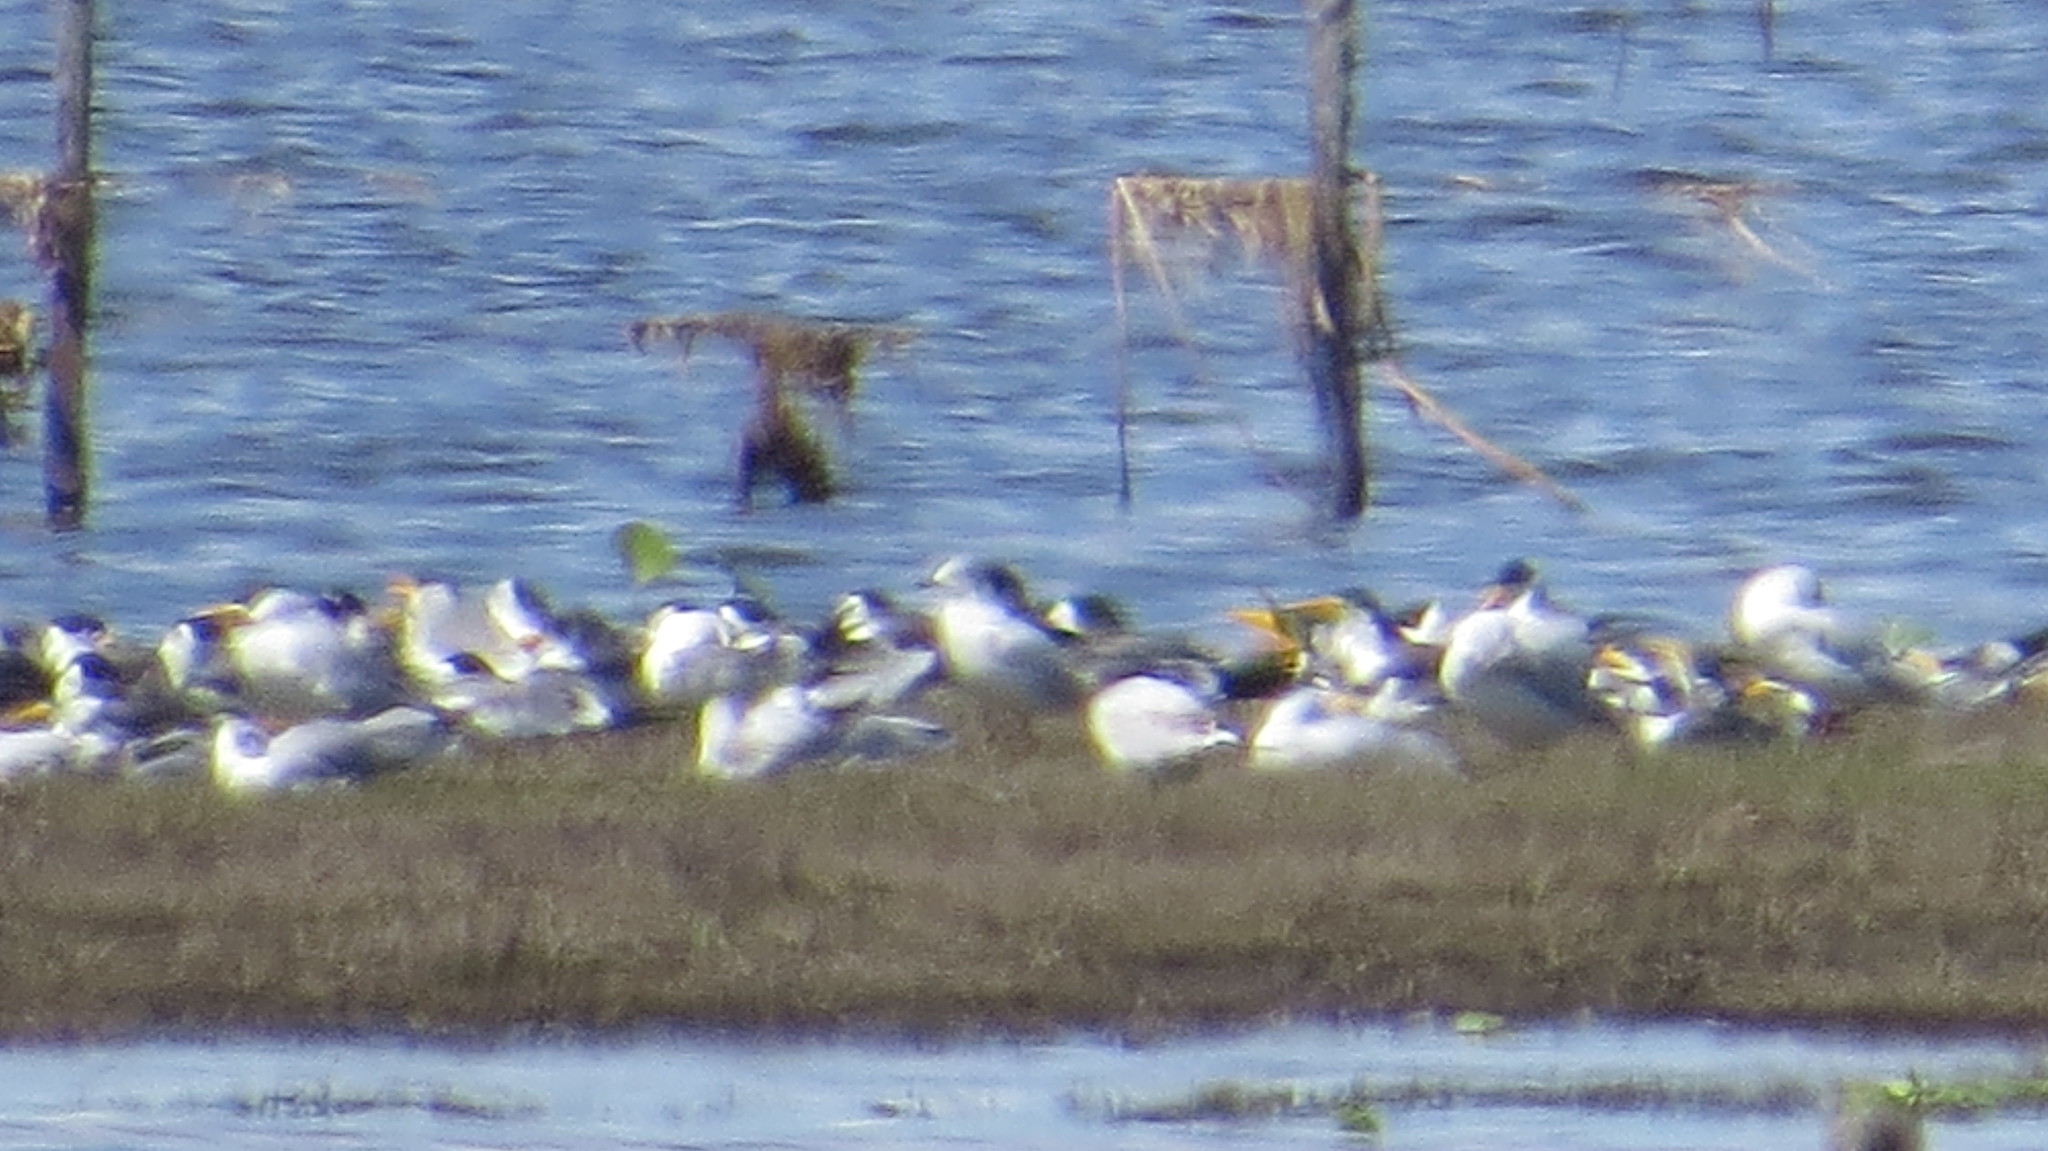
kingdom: Animalia
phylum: Chordata
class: Aves
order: Charadriiformes
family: Laridae
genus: Phaetusa
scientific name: Phaetusa simplex
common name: Large-billed tern
